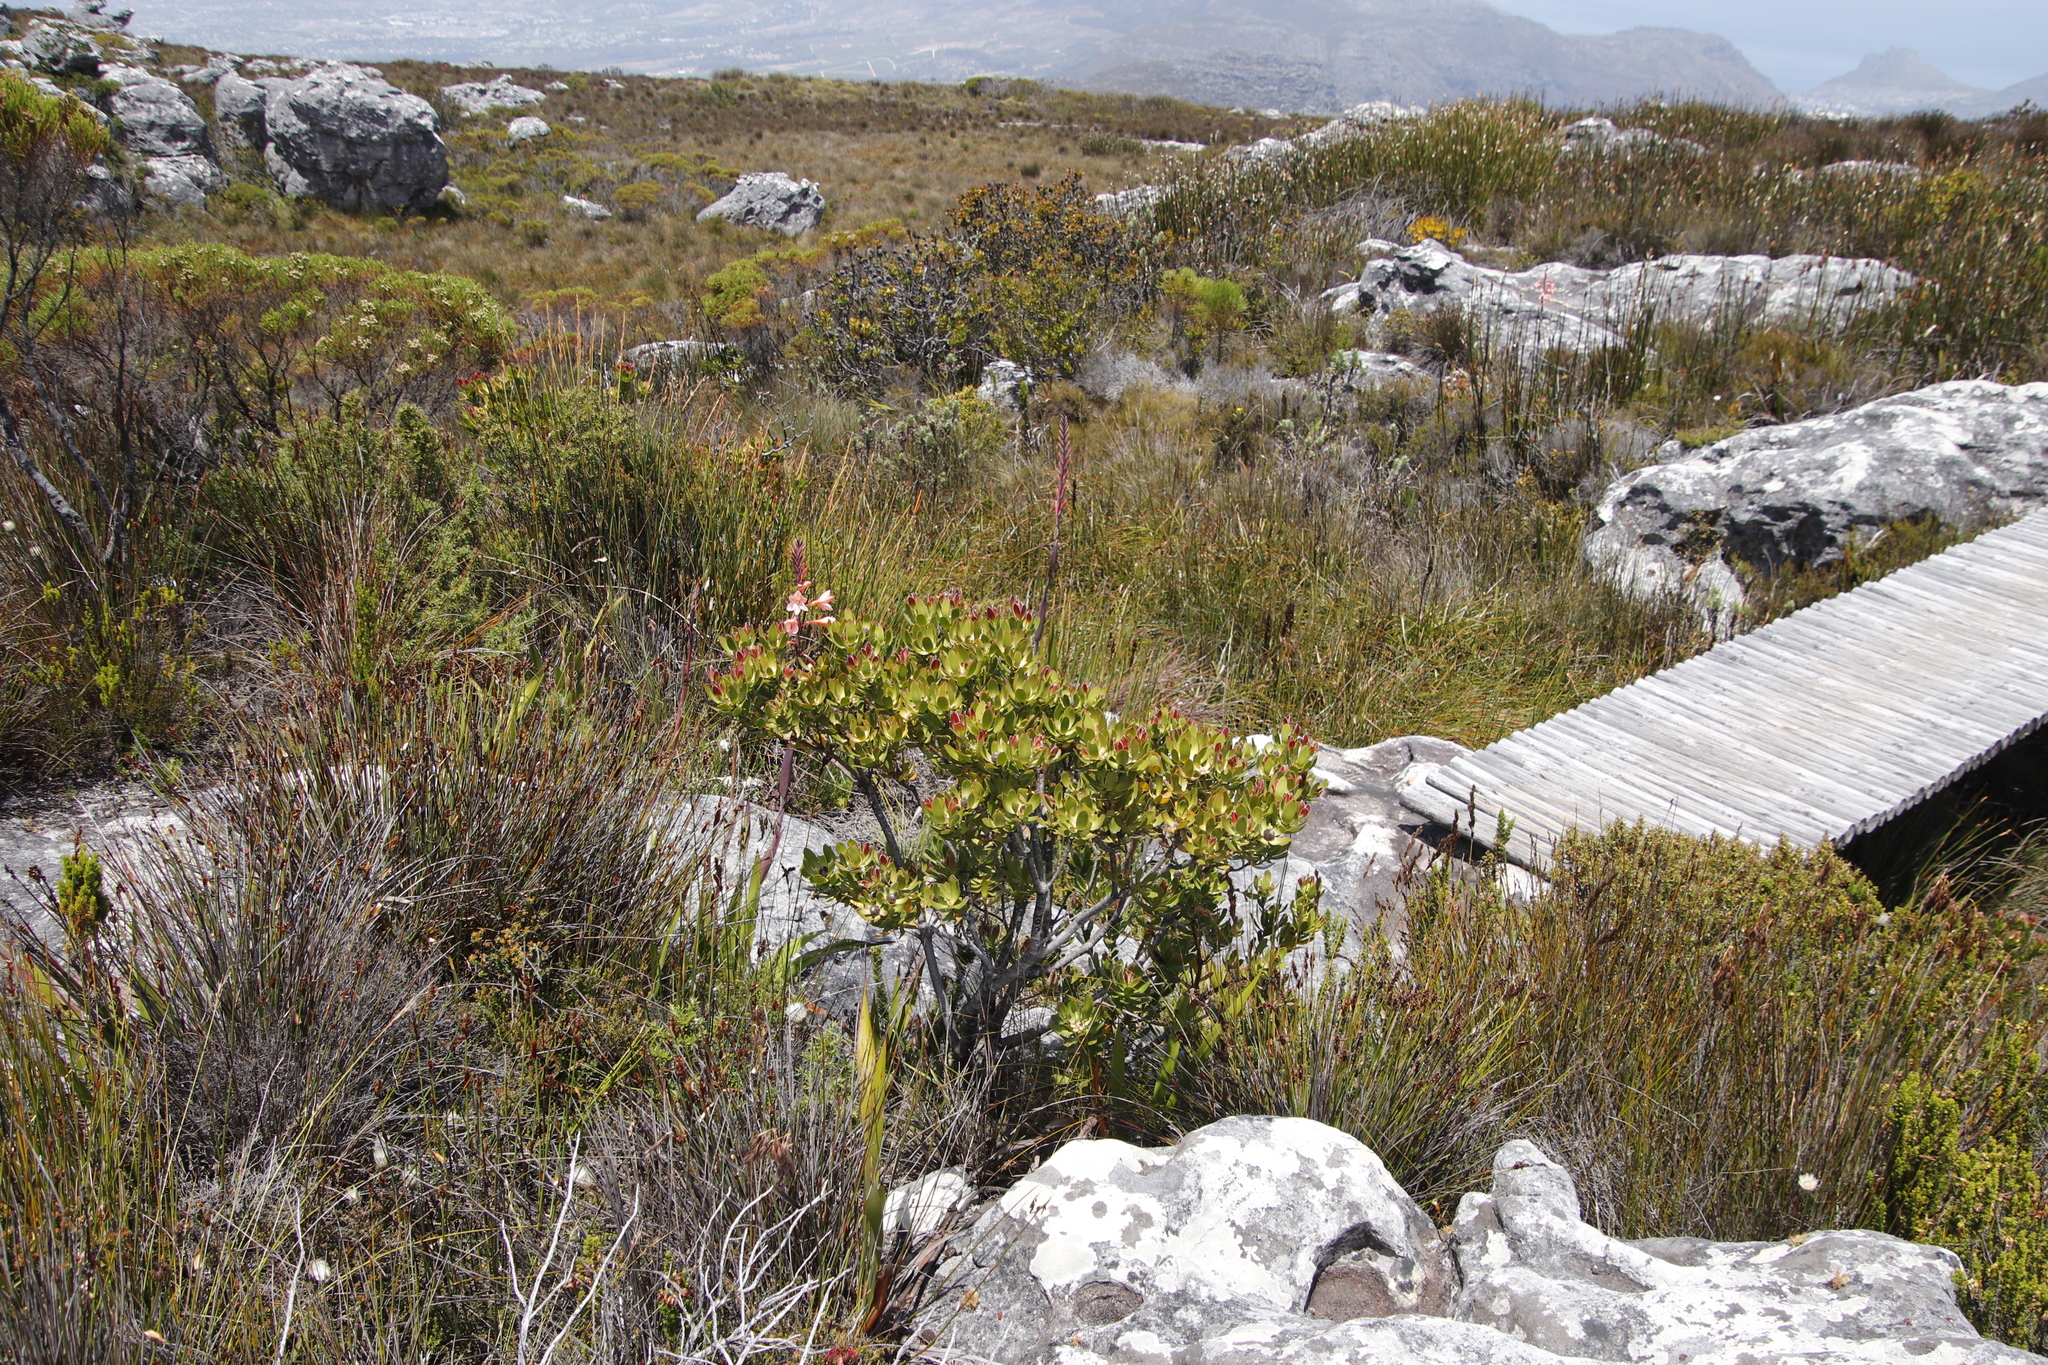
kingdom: Plantae
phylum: Tracheophyta
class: Magnoliopsida
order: Proteales
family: Proteaceae
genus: Leucadendron
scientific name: Leucadendron strobilinum
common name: Mountain rose
